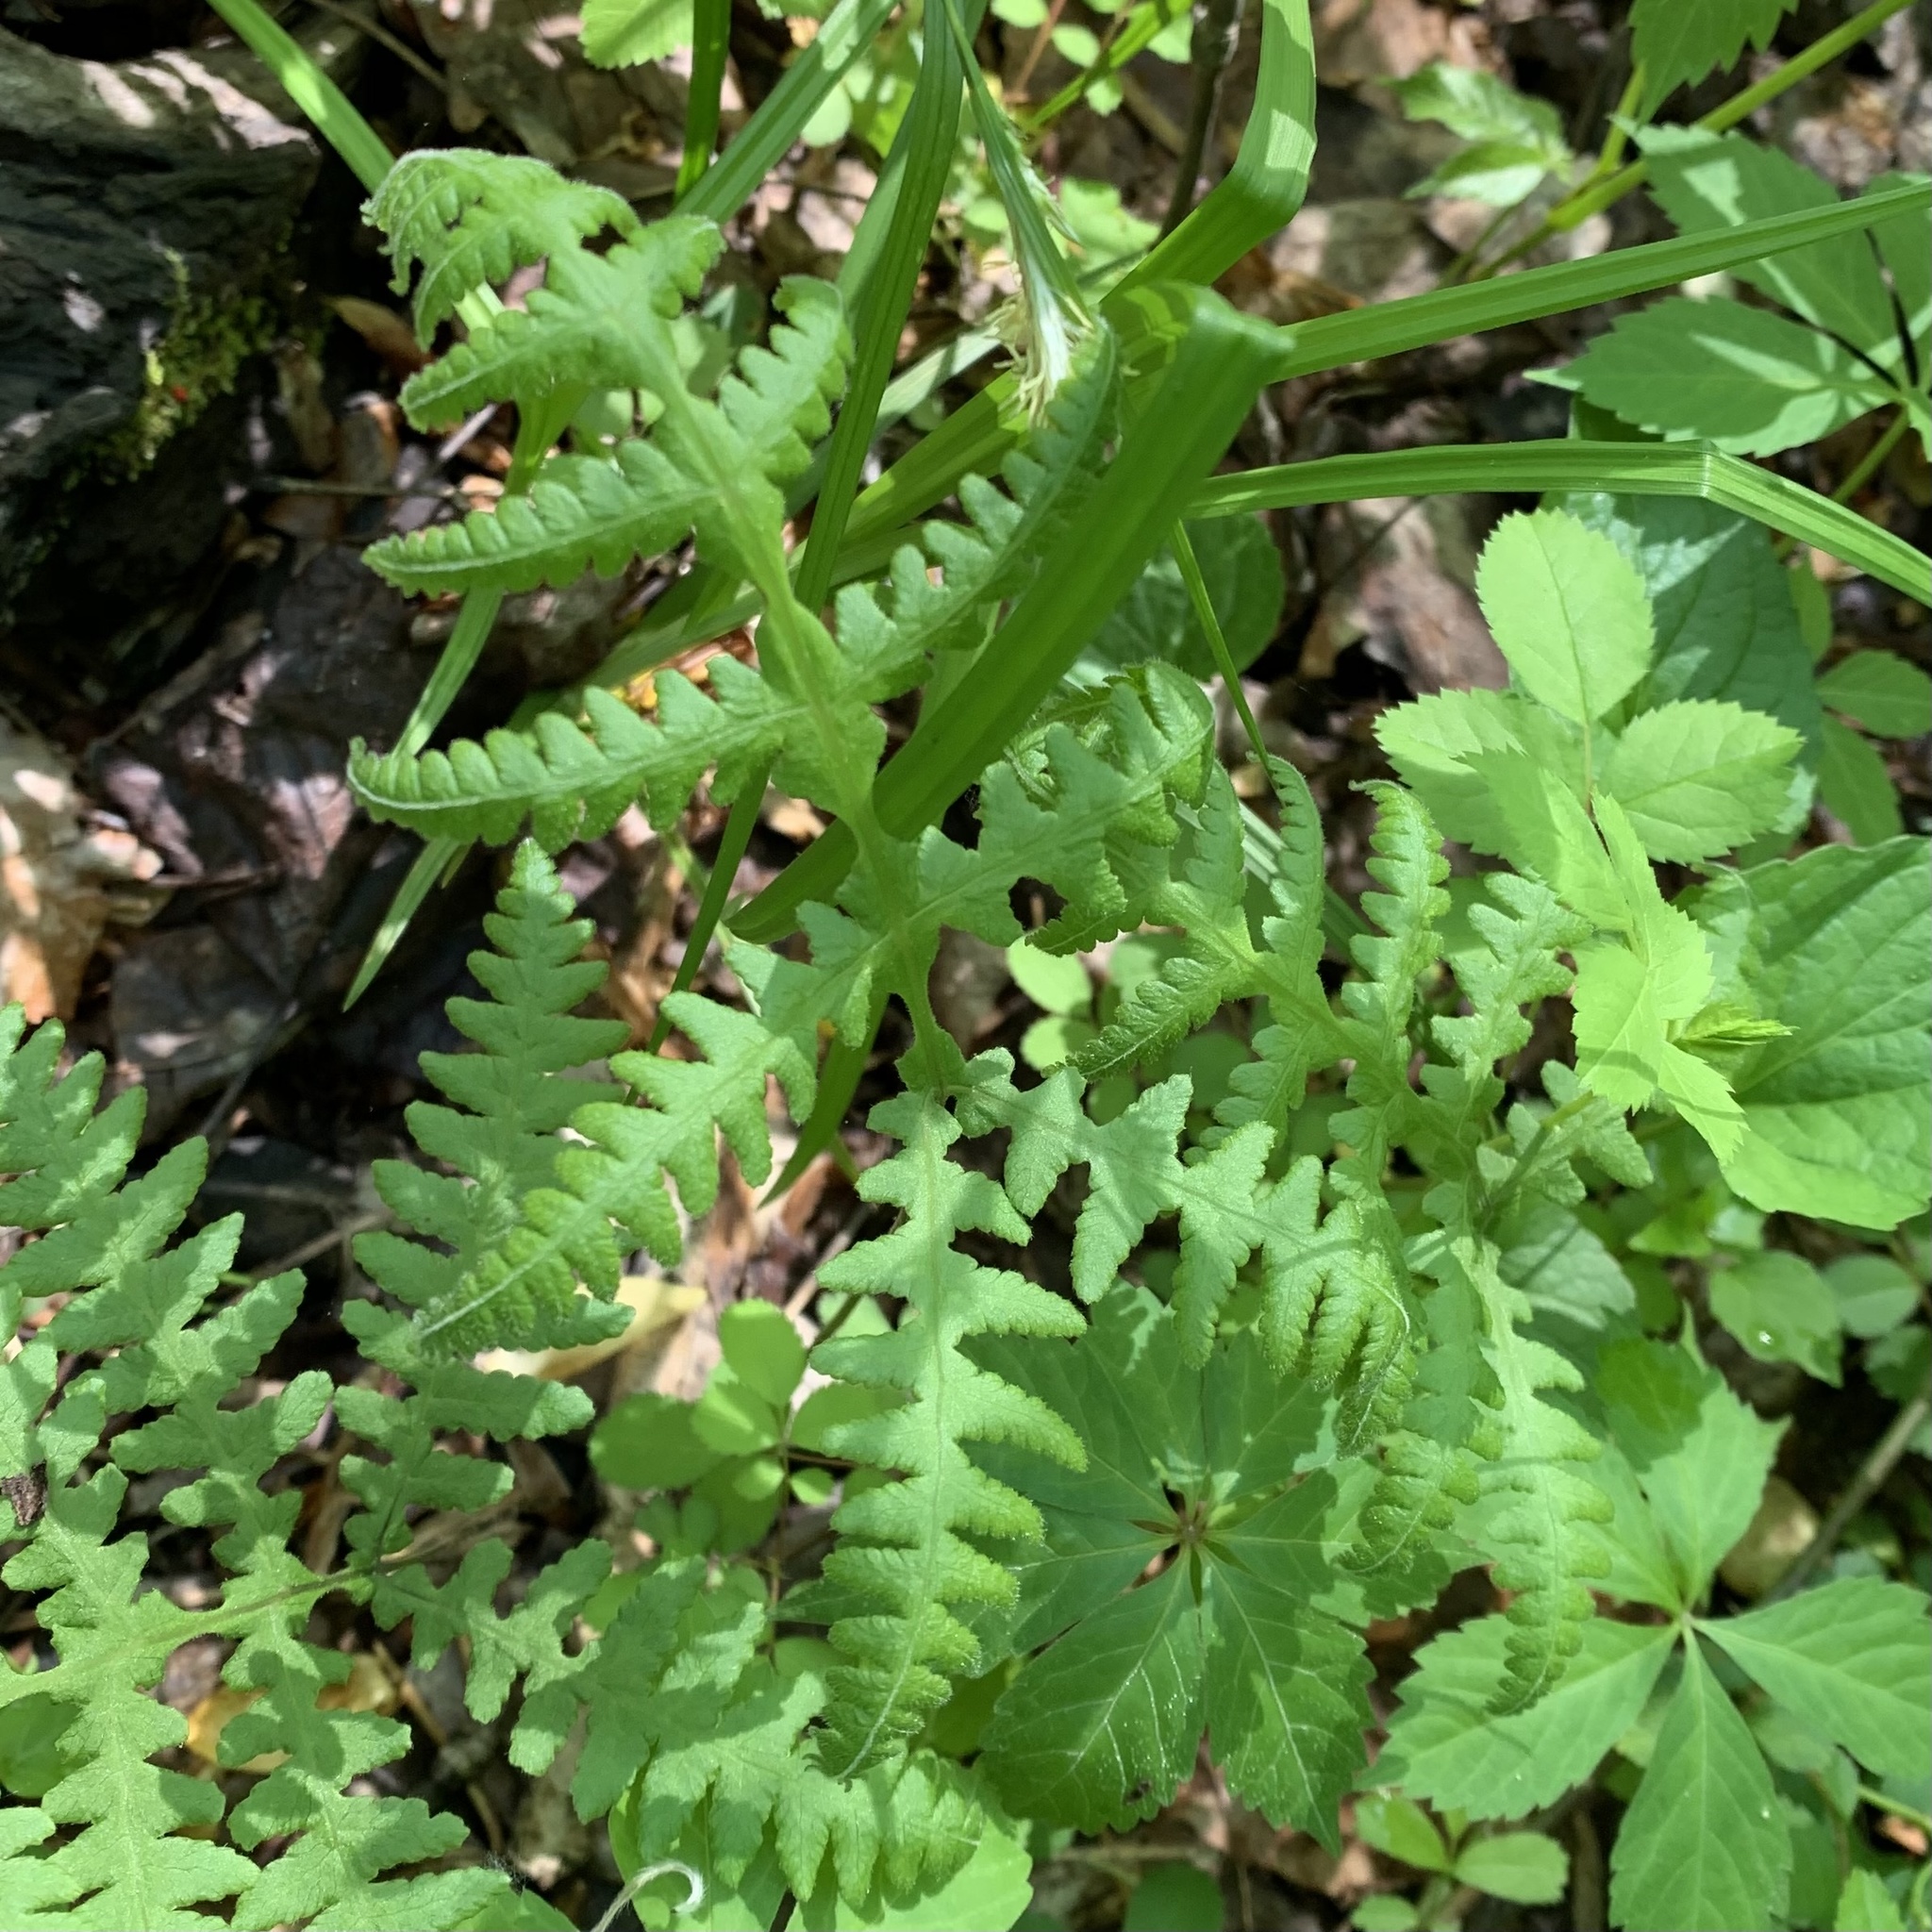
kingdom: Plantae
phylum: Tracheophyta
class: Polypodiopsida
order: Polypodiales
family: Thelypteridaceae
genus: Phegopteris
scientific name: Phegopteris hexagonoptera
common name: Broad beech fern
